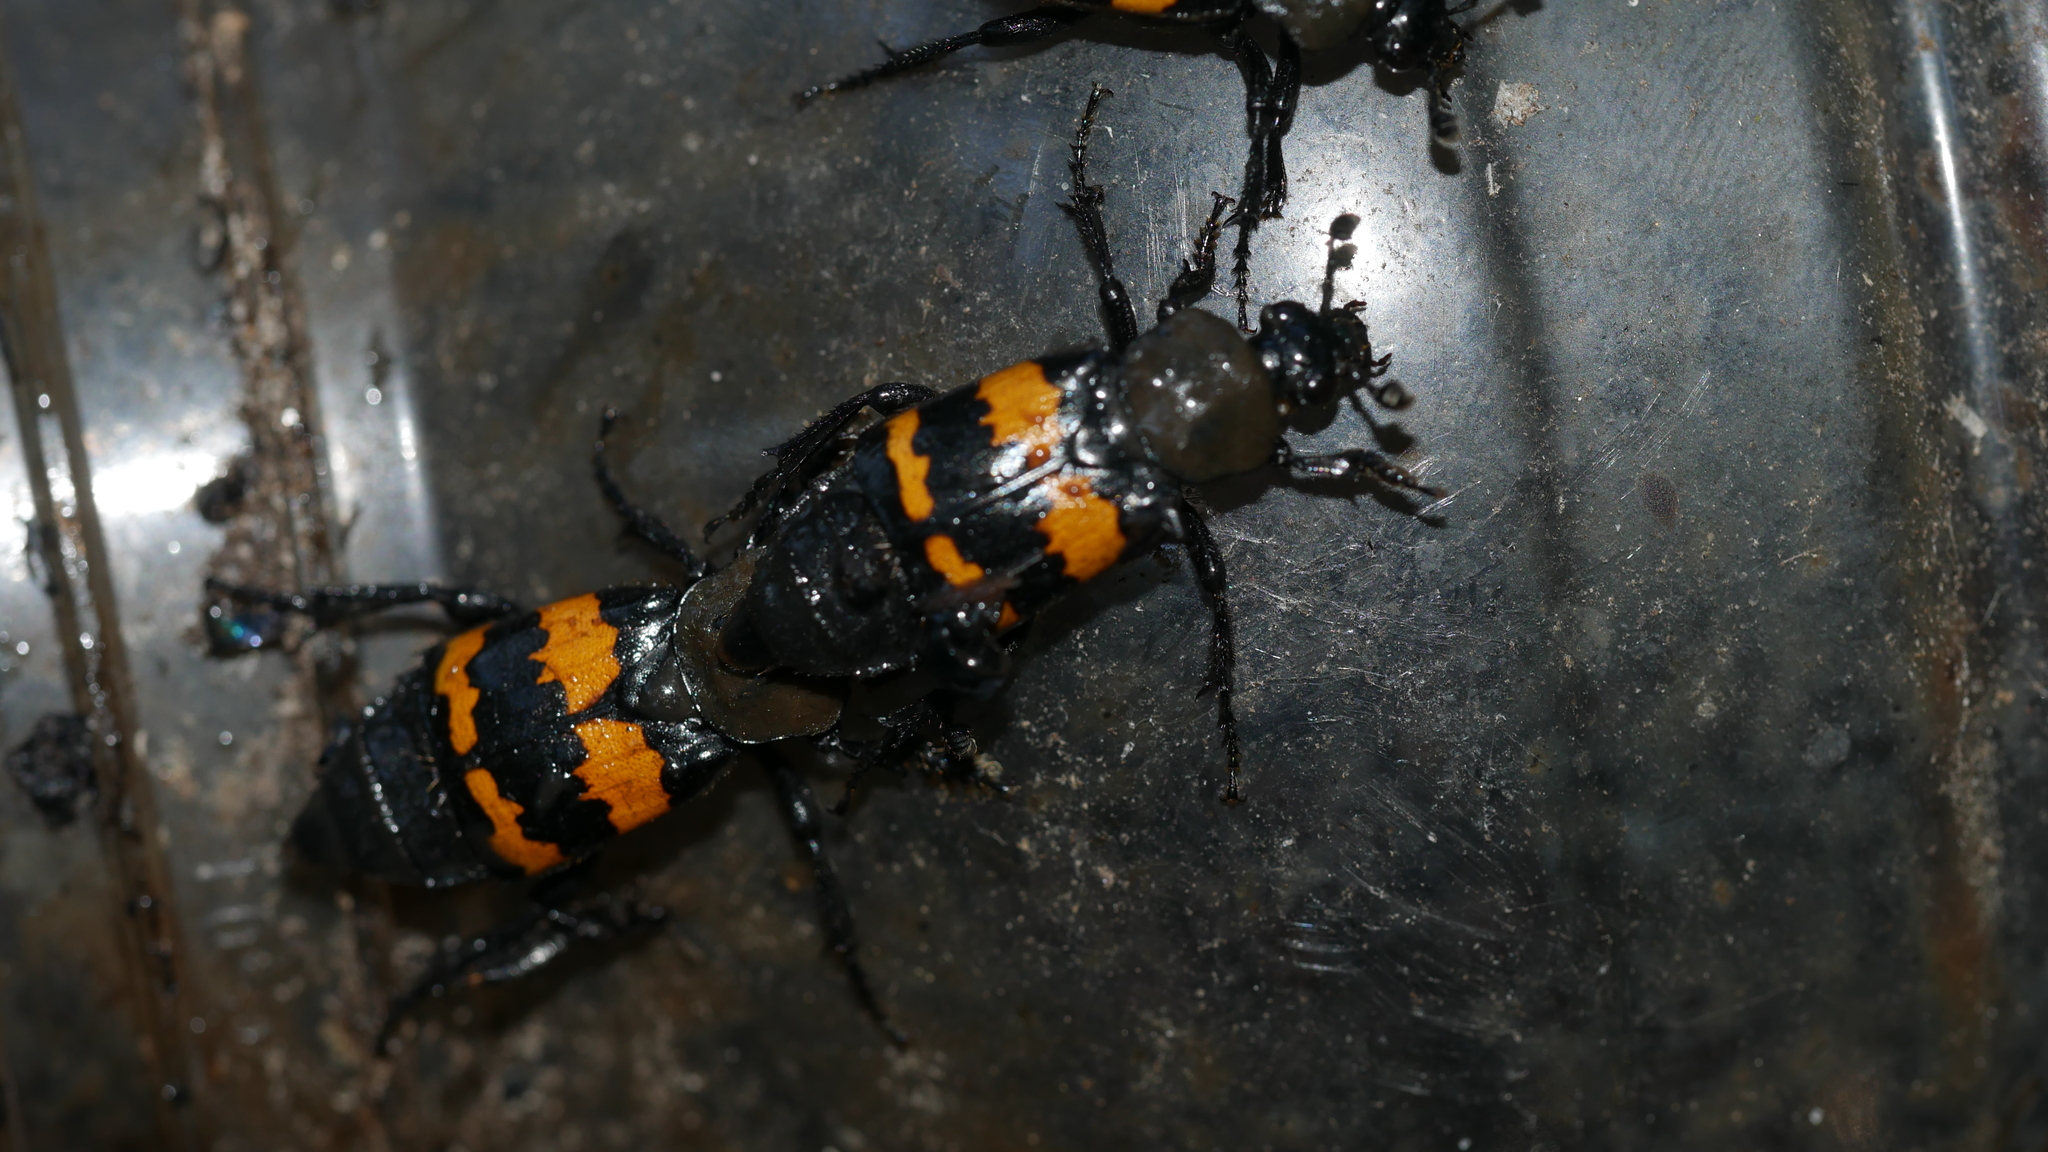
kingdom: Animalia
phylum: Arthropoda
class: Insecta
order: Coleoptera
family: Staphylinidae
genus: Nicrophorus
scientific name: Nicrophorus tomentosus
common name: Tomentose burying beetle
